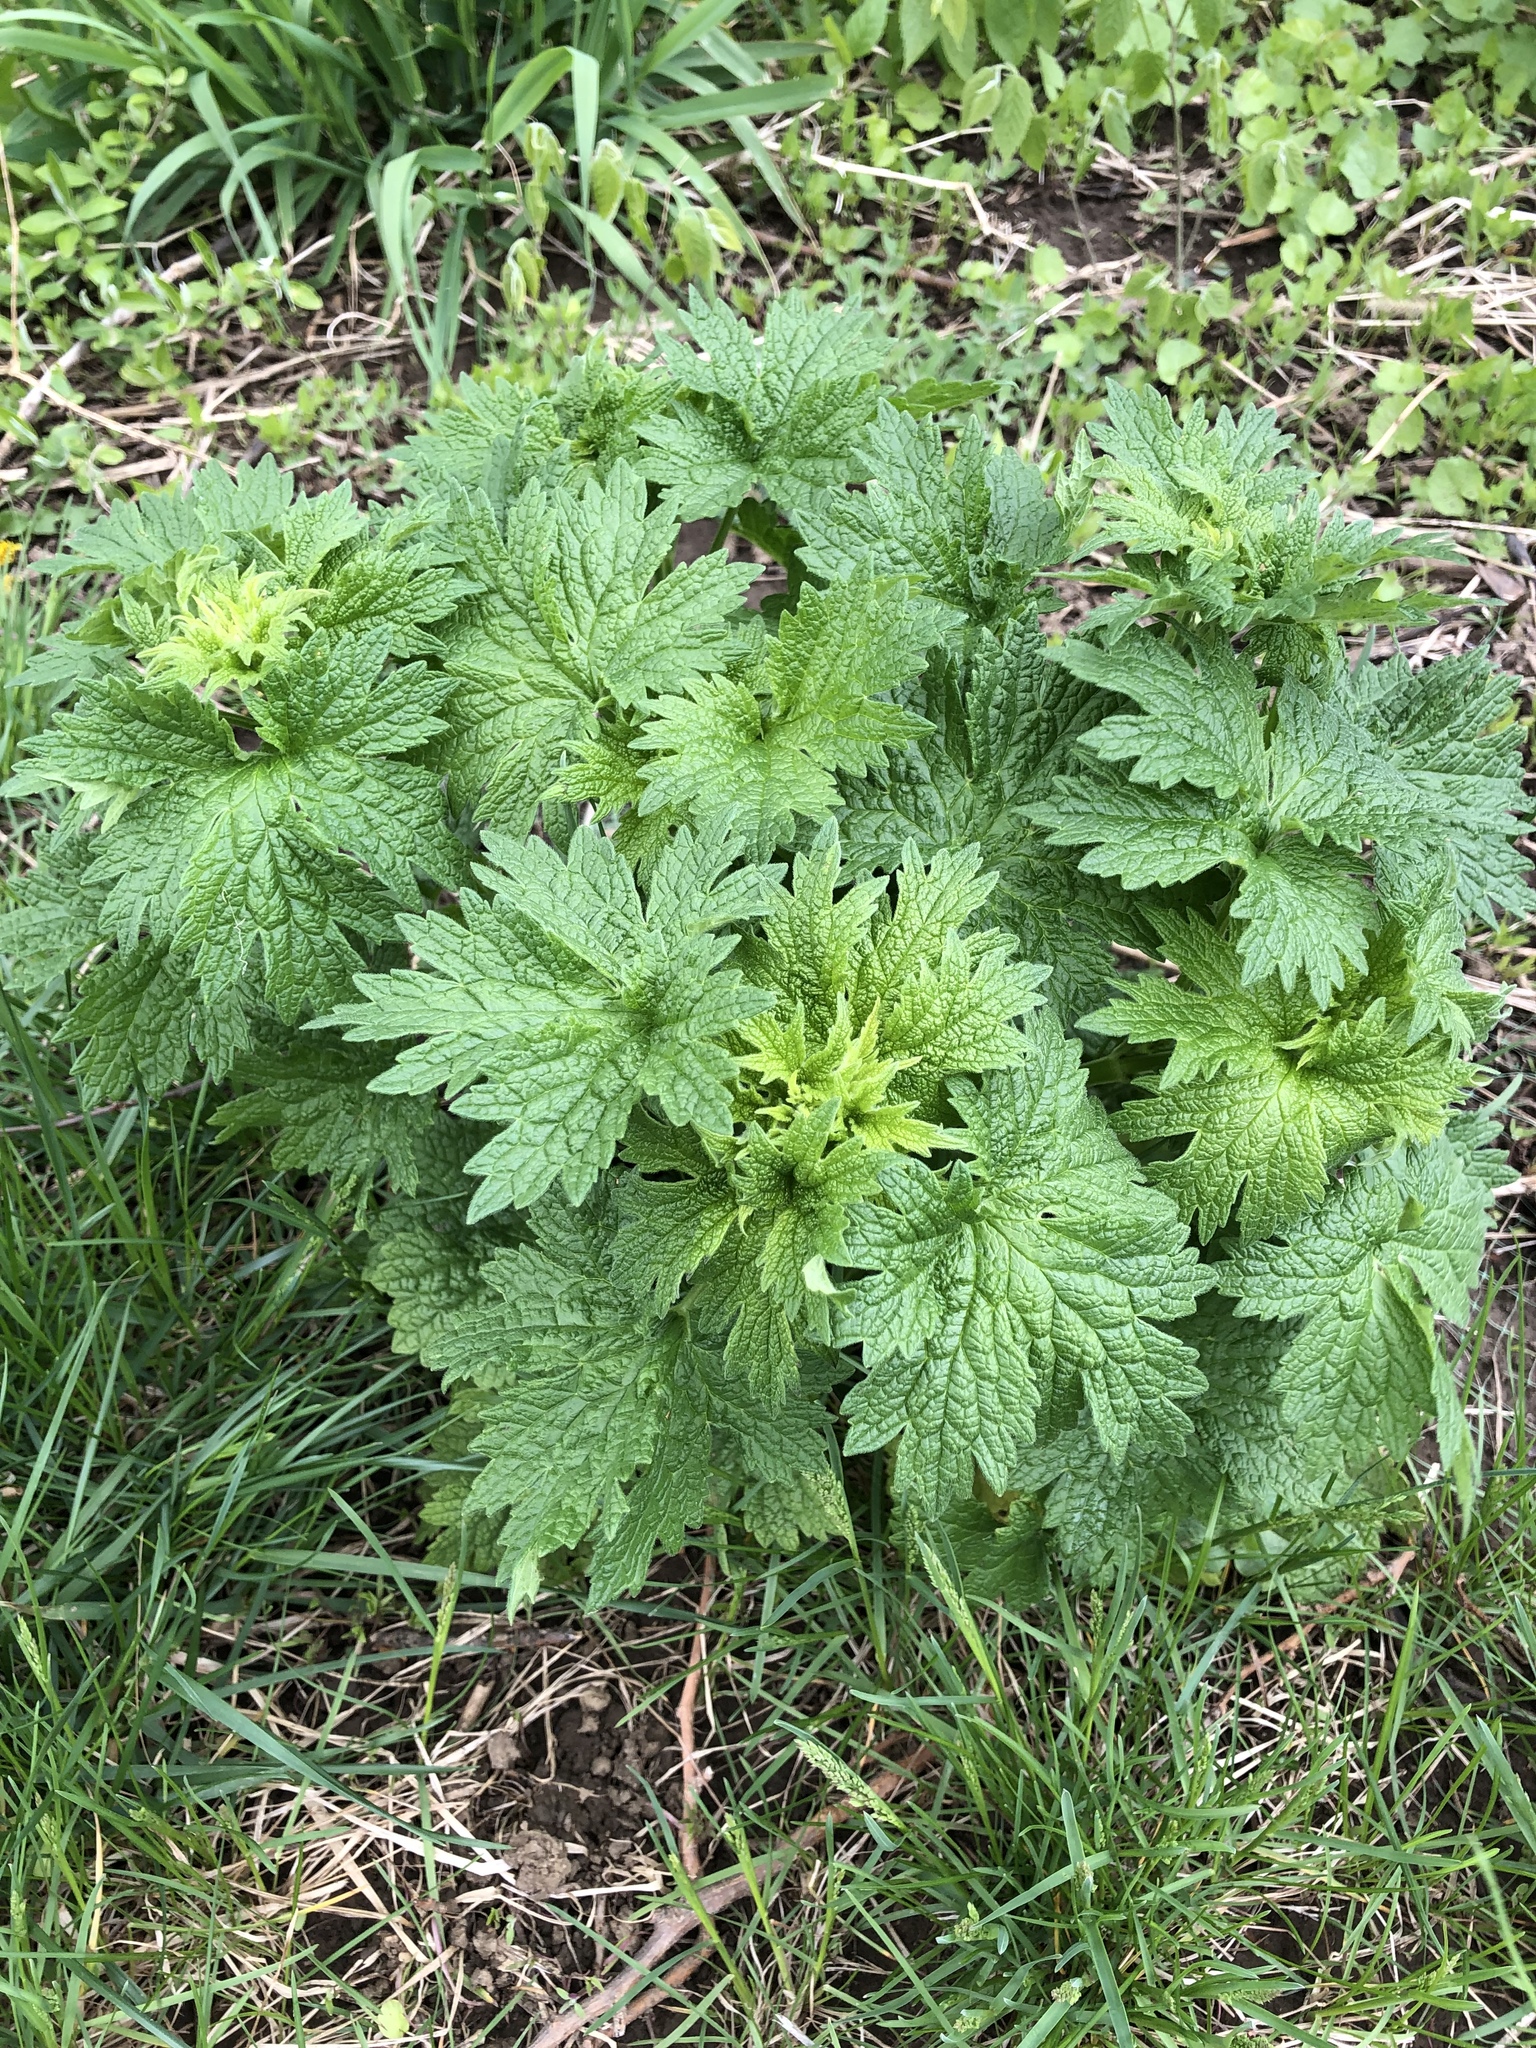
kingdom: Plantae
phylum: Tracheophyta
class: Magnoliopsida
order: Lamiales
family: Lamiaceae
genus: Leonurus
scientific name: Leonurus cardiaca
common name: Motherwort
